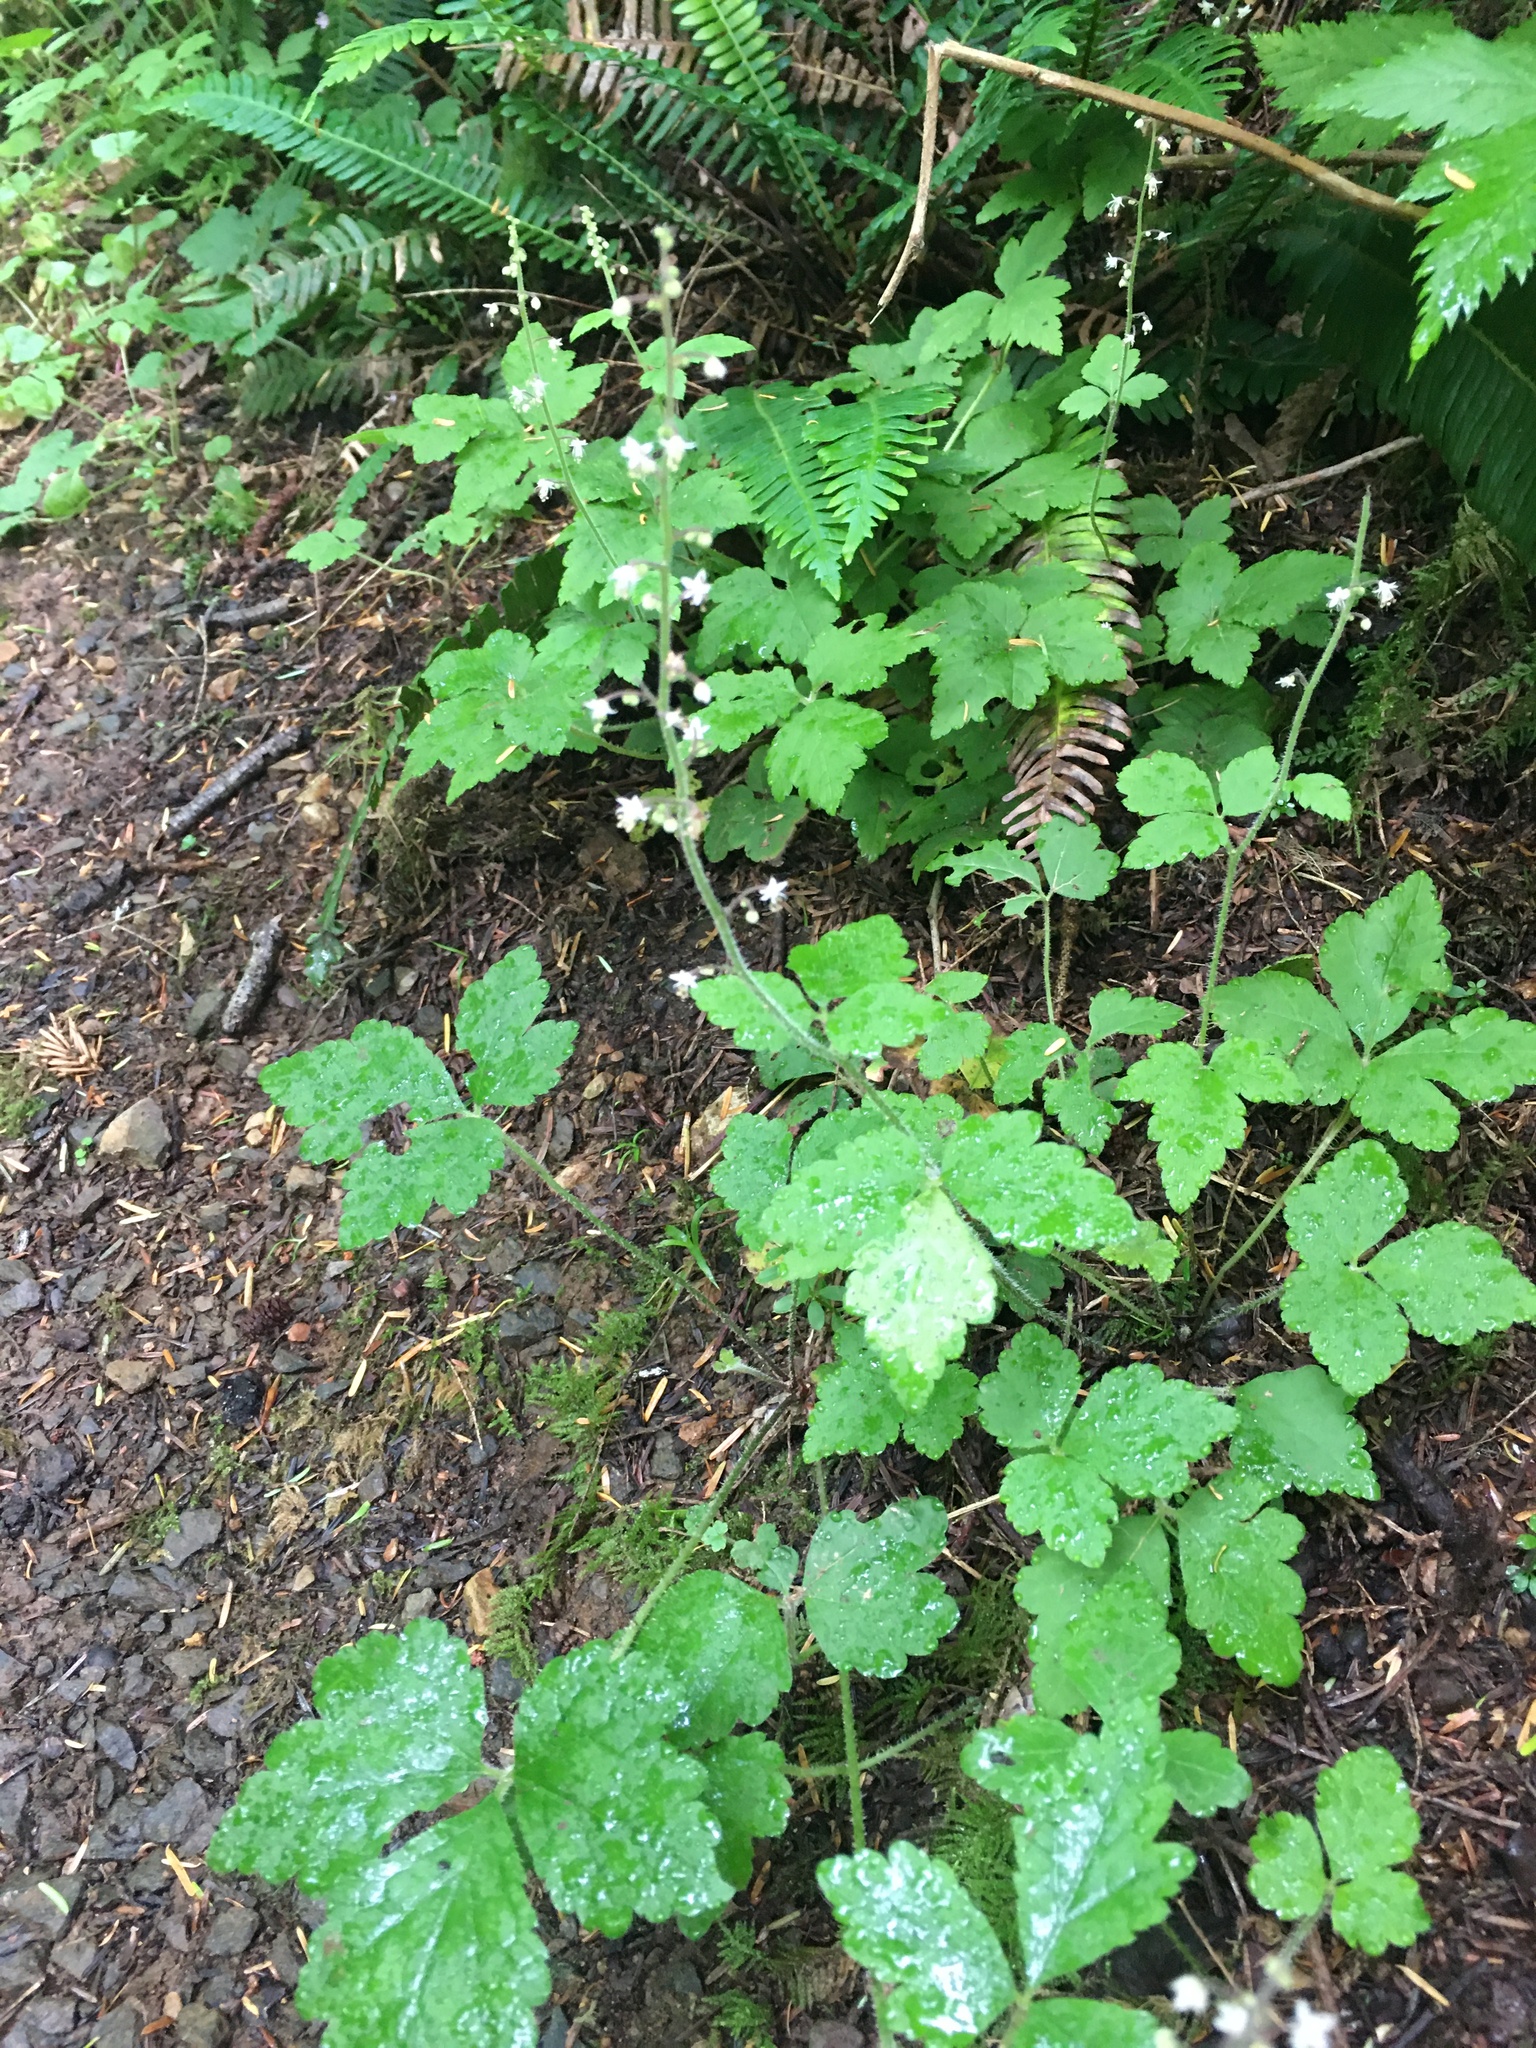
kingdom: Plantae
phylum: Tracheophyta
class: Magnoliopsida
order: Saxifragales
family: Saxifragaceae
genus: Tiarella
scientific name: Tiarella trifoliata
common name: Sugar-scoop
